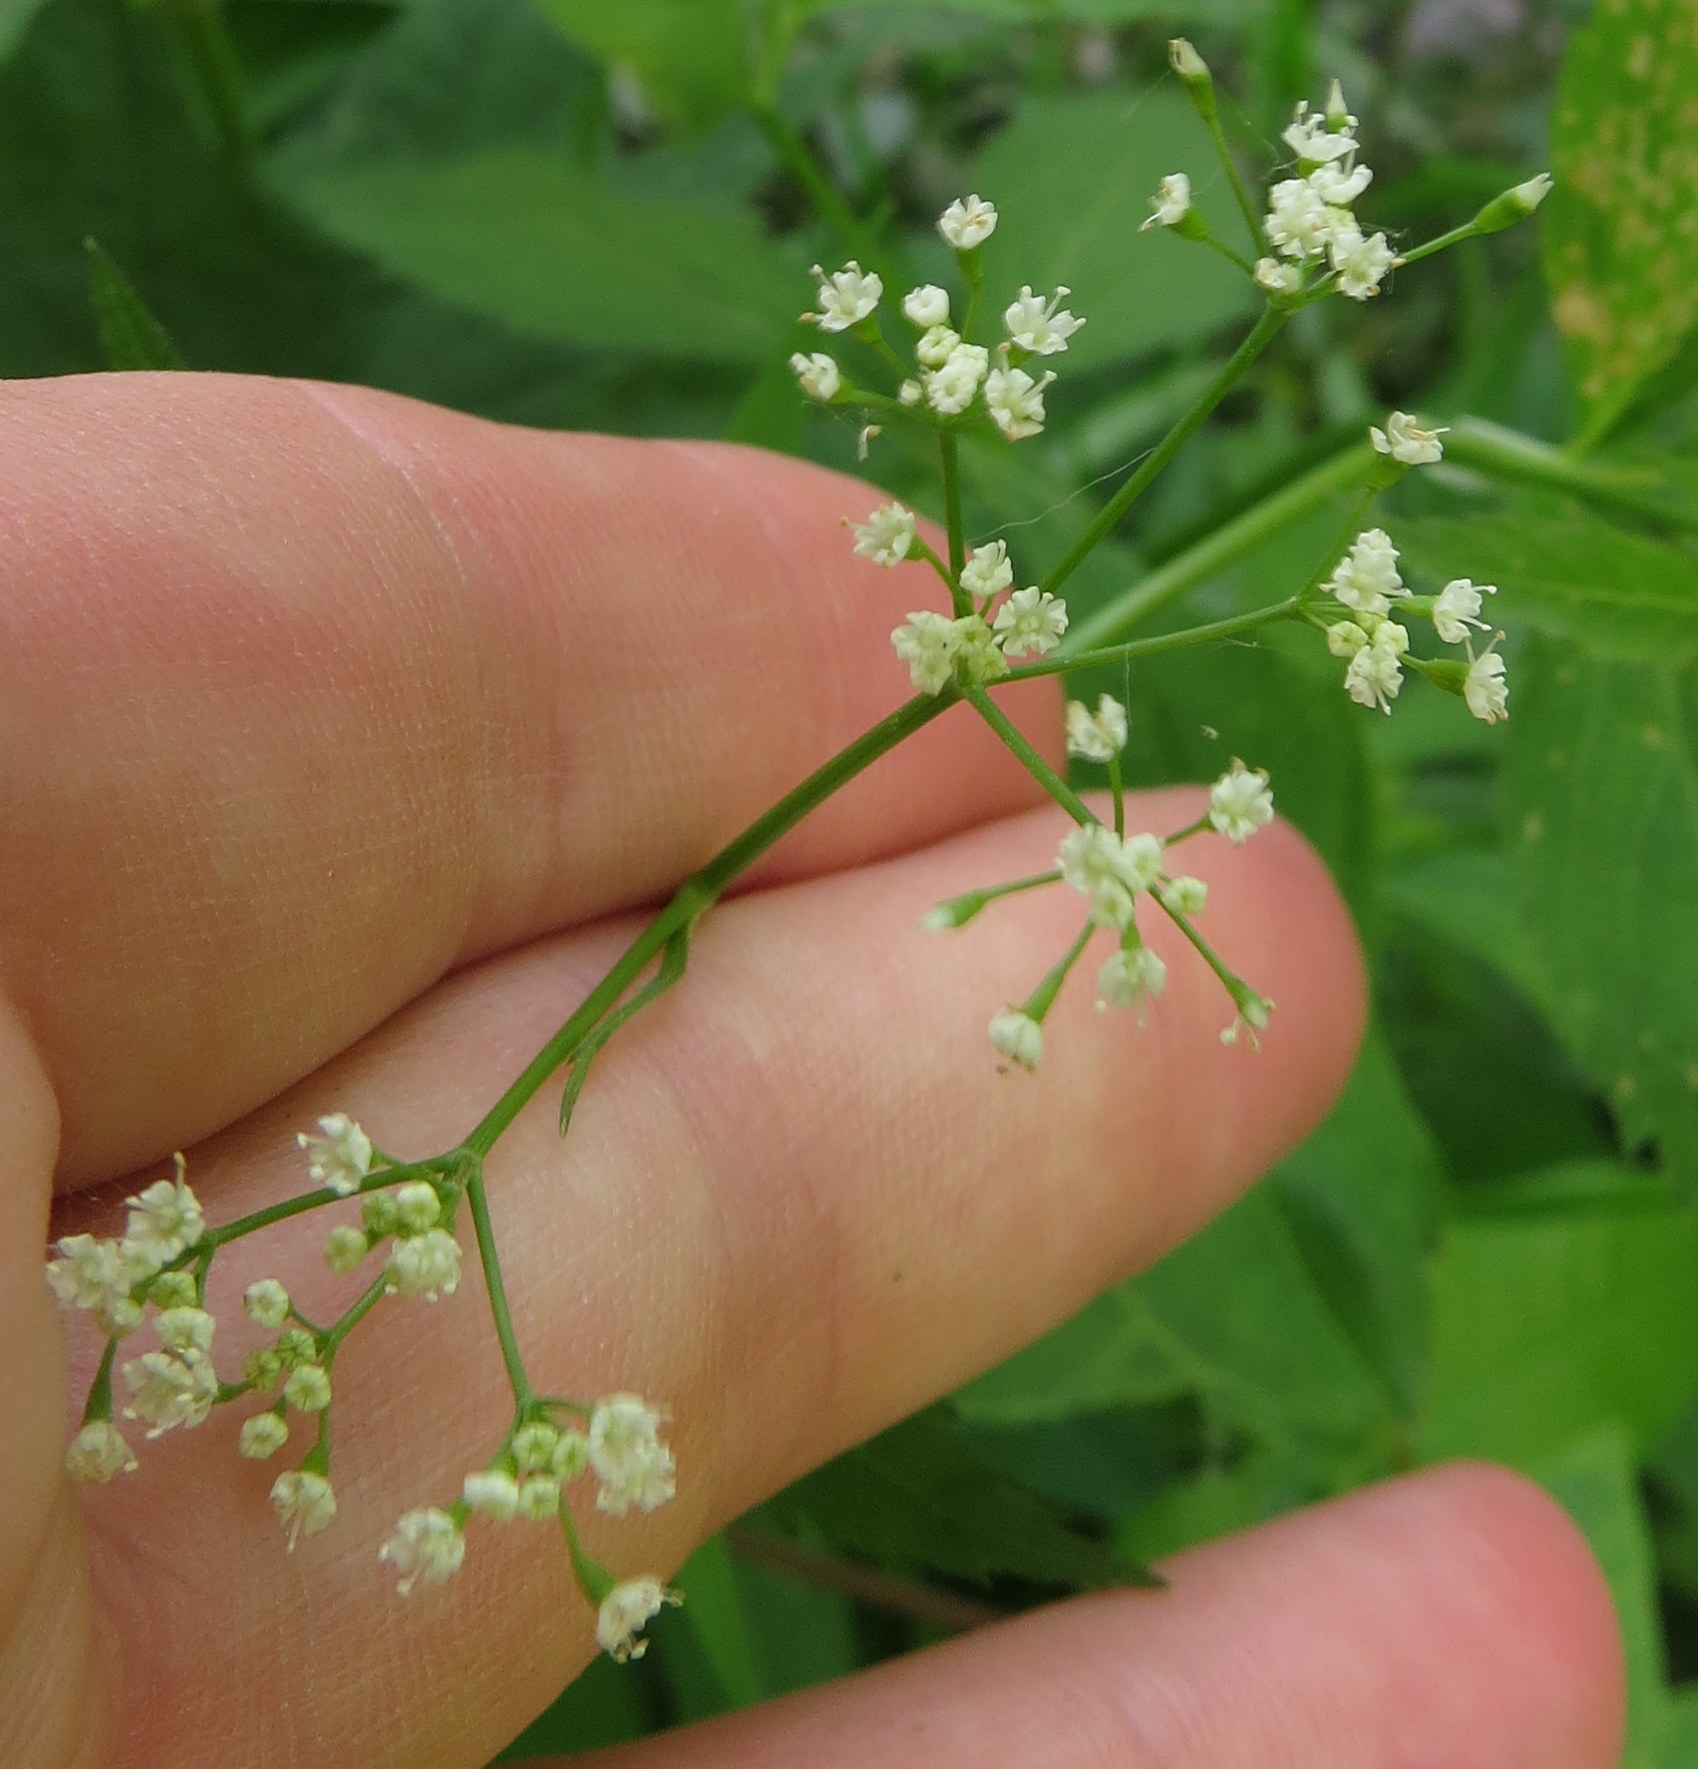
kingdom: Plantae
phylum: Tracheophyta
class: Magnoliopsida
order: Apiales
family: Apiaceae
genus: Cryptotaenia
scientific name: Cryptotaenia canadensis
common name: Honewort
